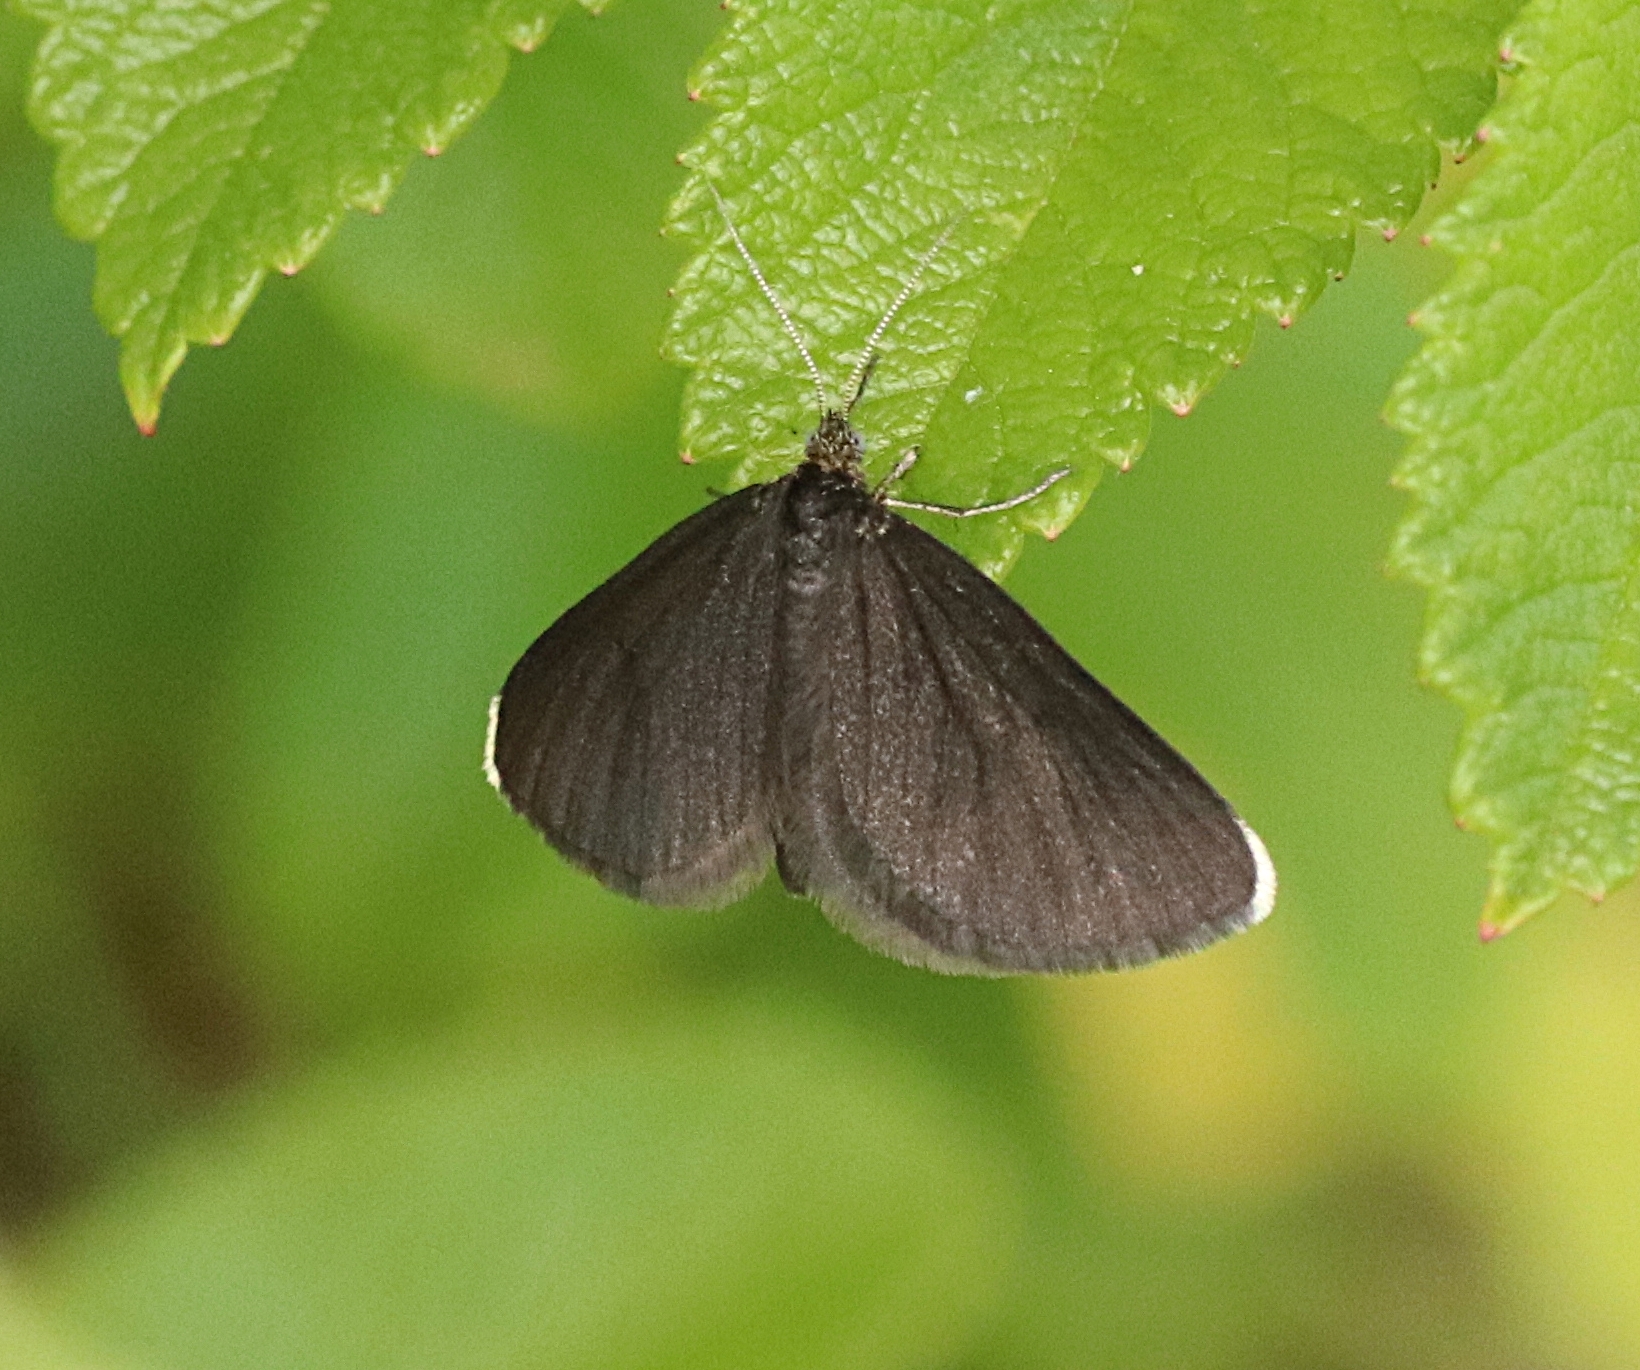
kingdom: Animalia
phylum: Arthropoda
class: Insecta
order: Lepidoptera
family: Geometridae
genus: Odezia
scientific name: Odezia atrata
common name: Chimney sweeper
